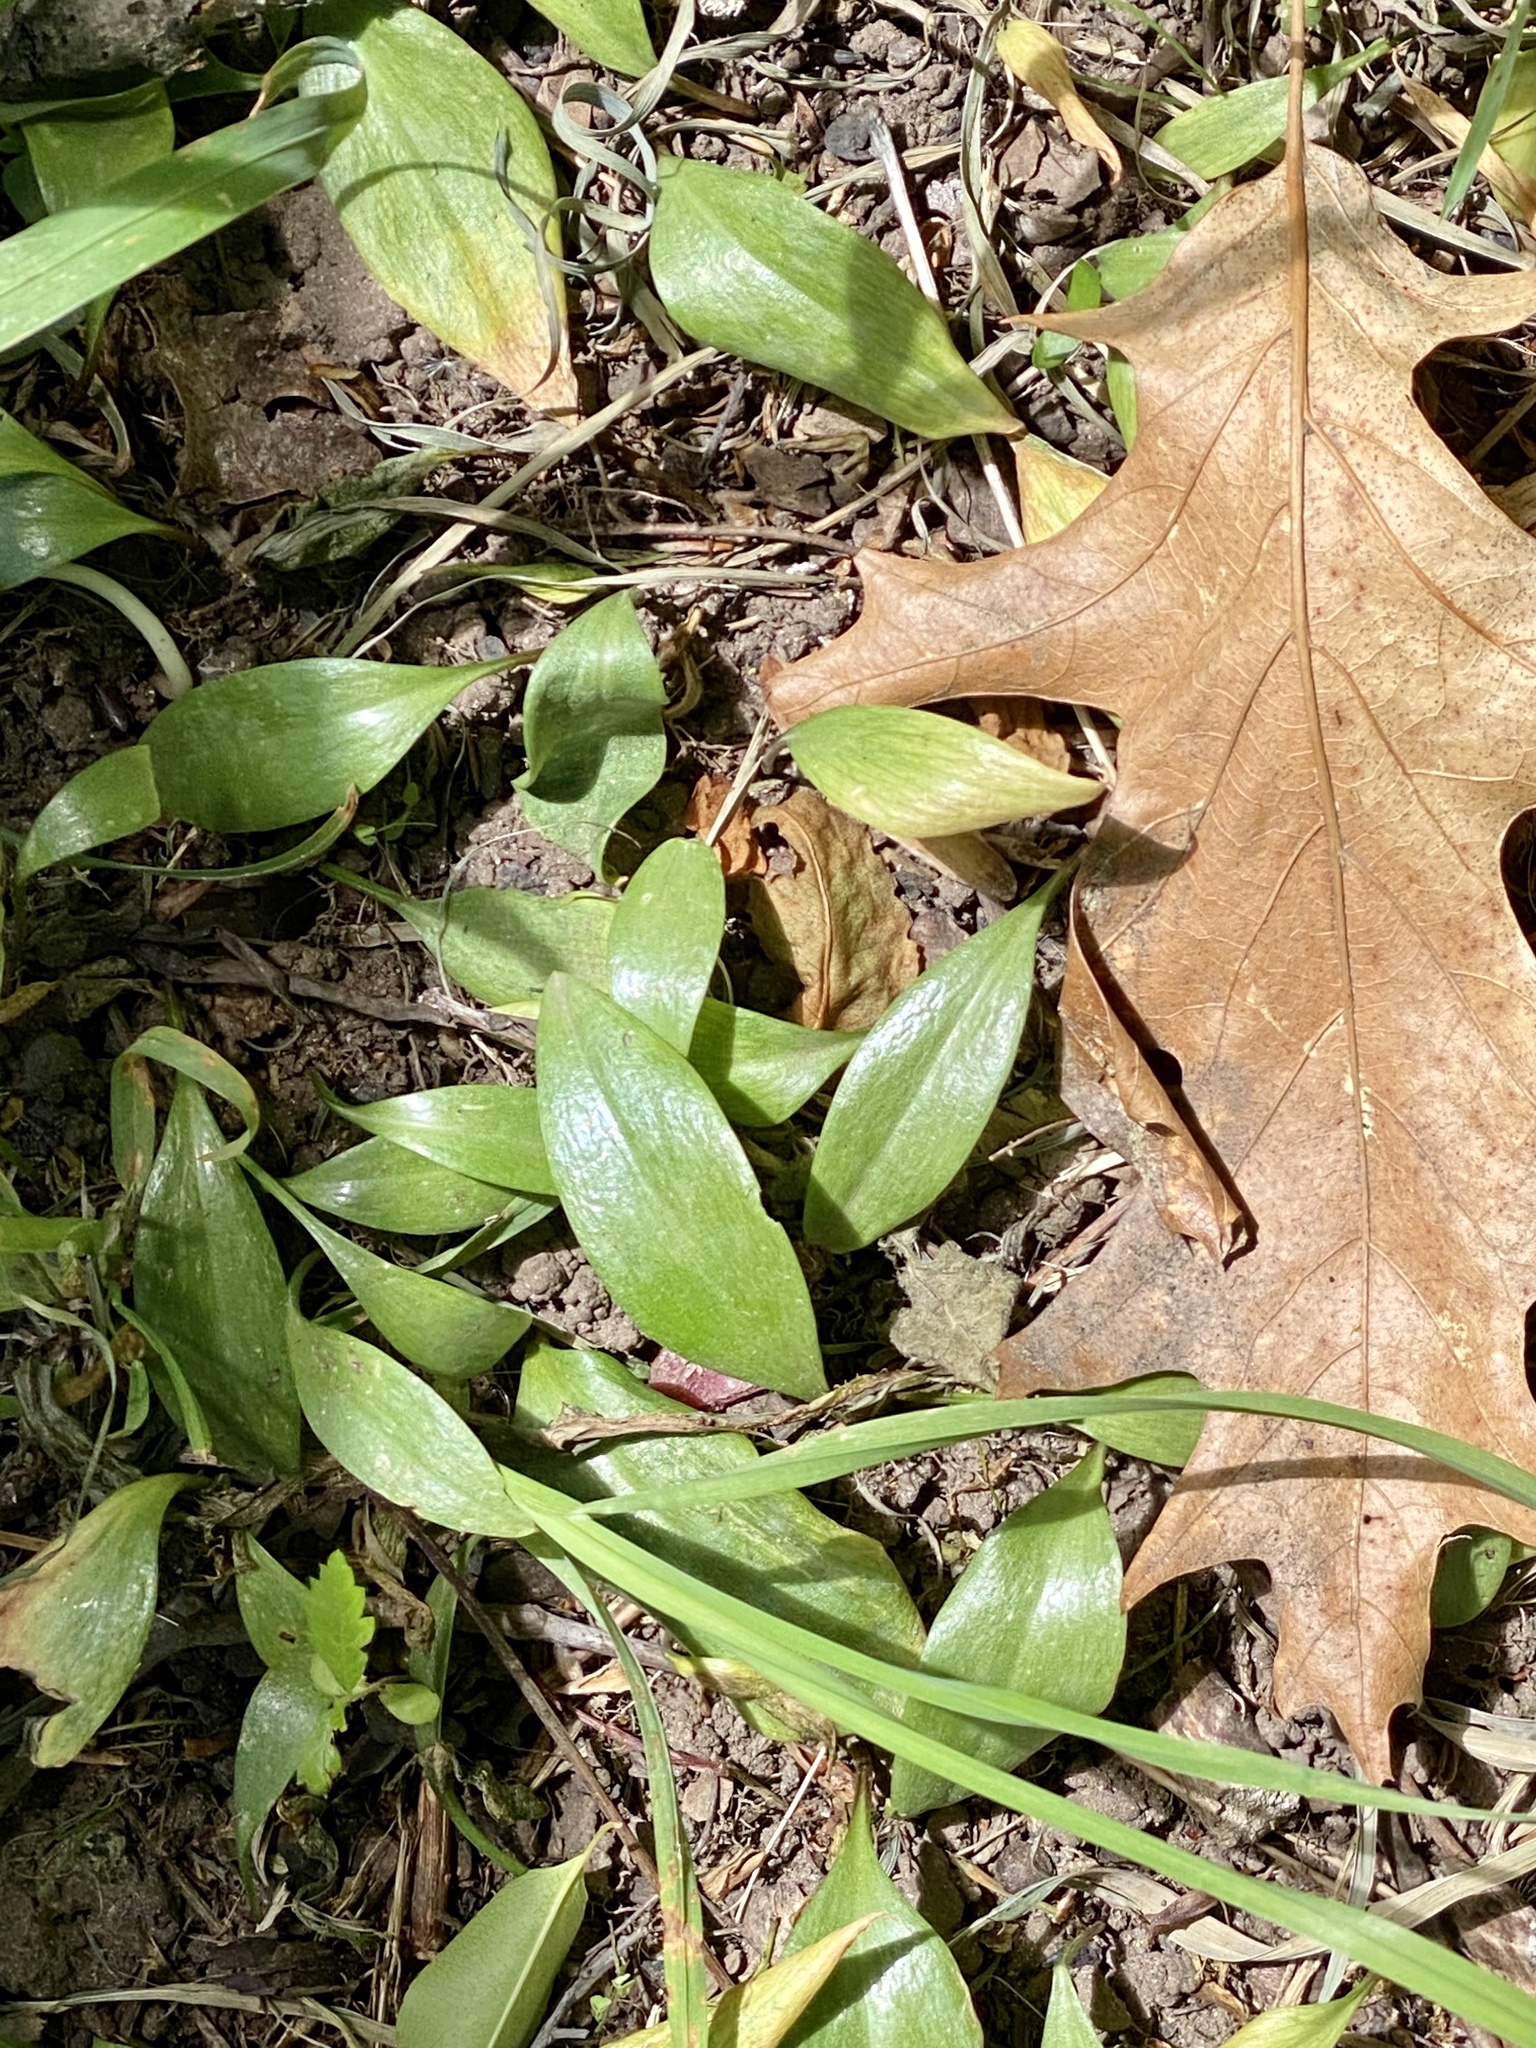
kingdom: Plantae
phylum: Tracheophyta
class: Liliopsida
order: Liliales
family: Liliaceae
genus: Erythronium
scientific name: Erythronium americanum
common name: Yellow adder's-tongue
